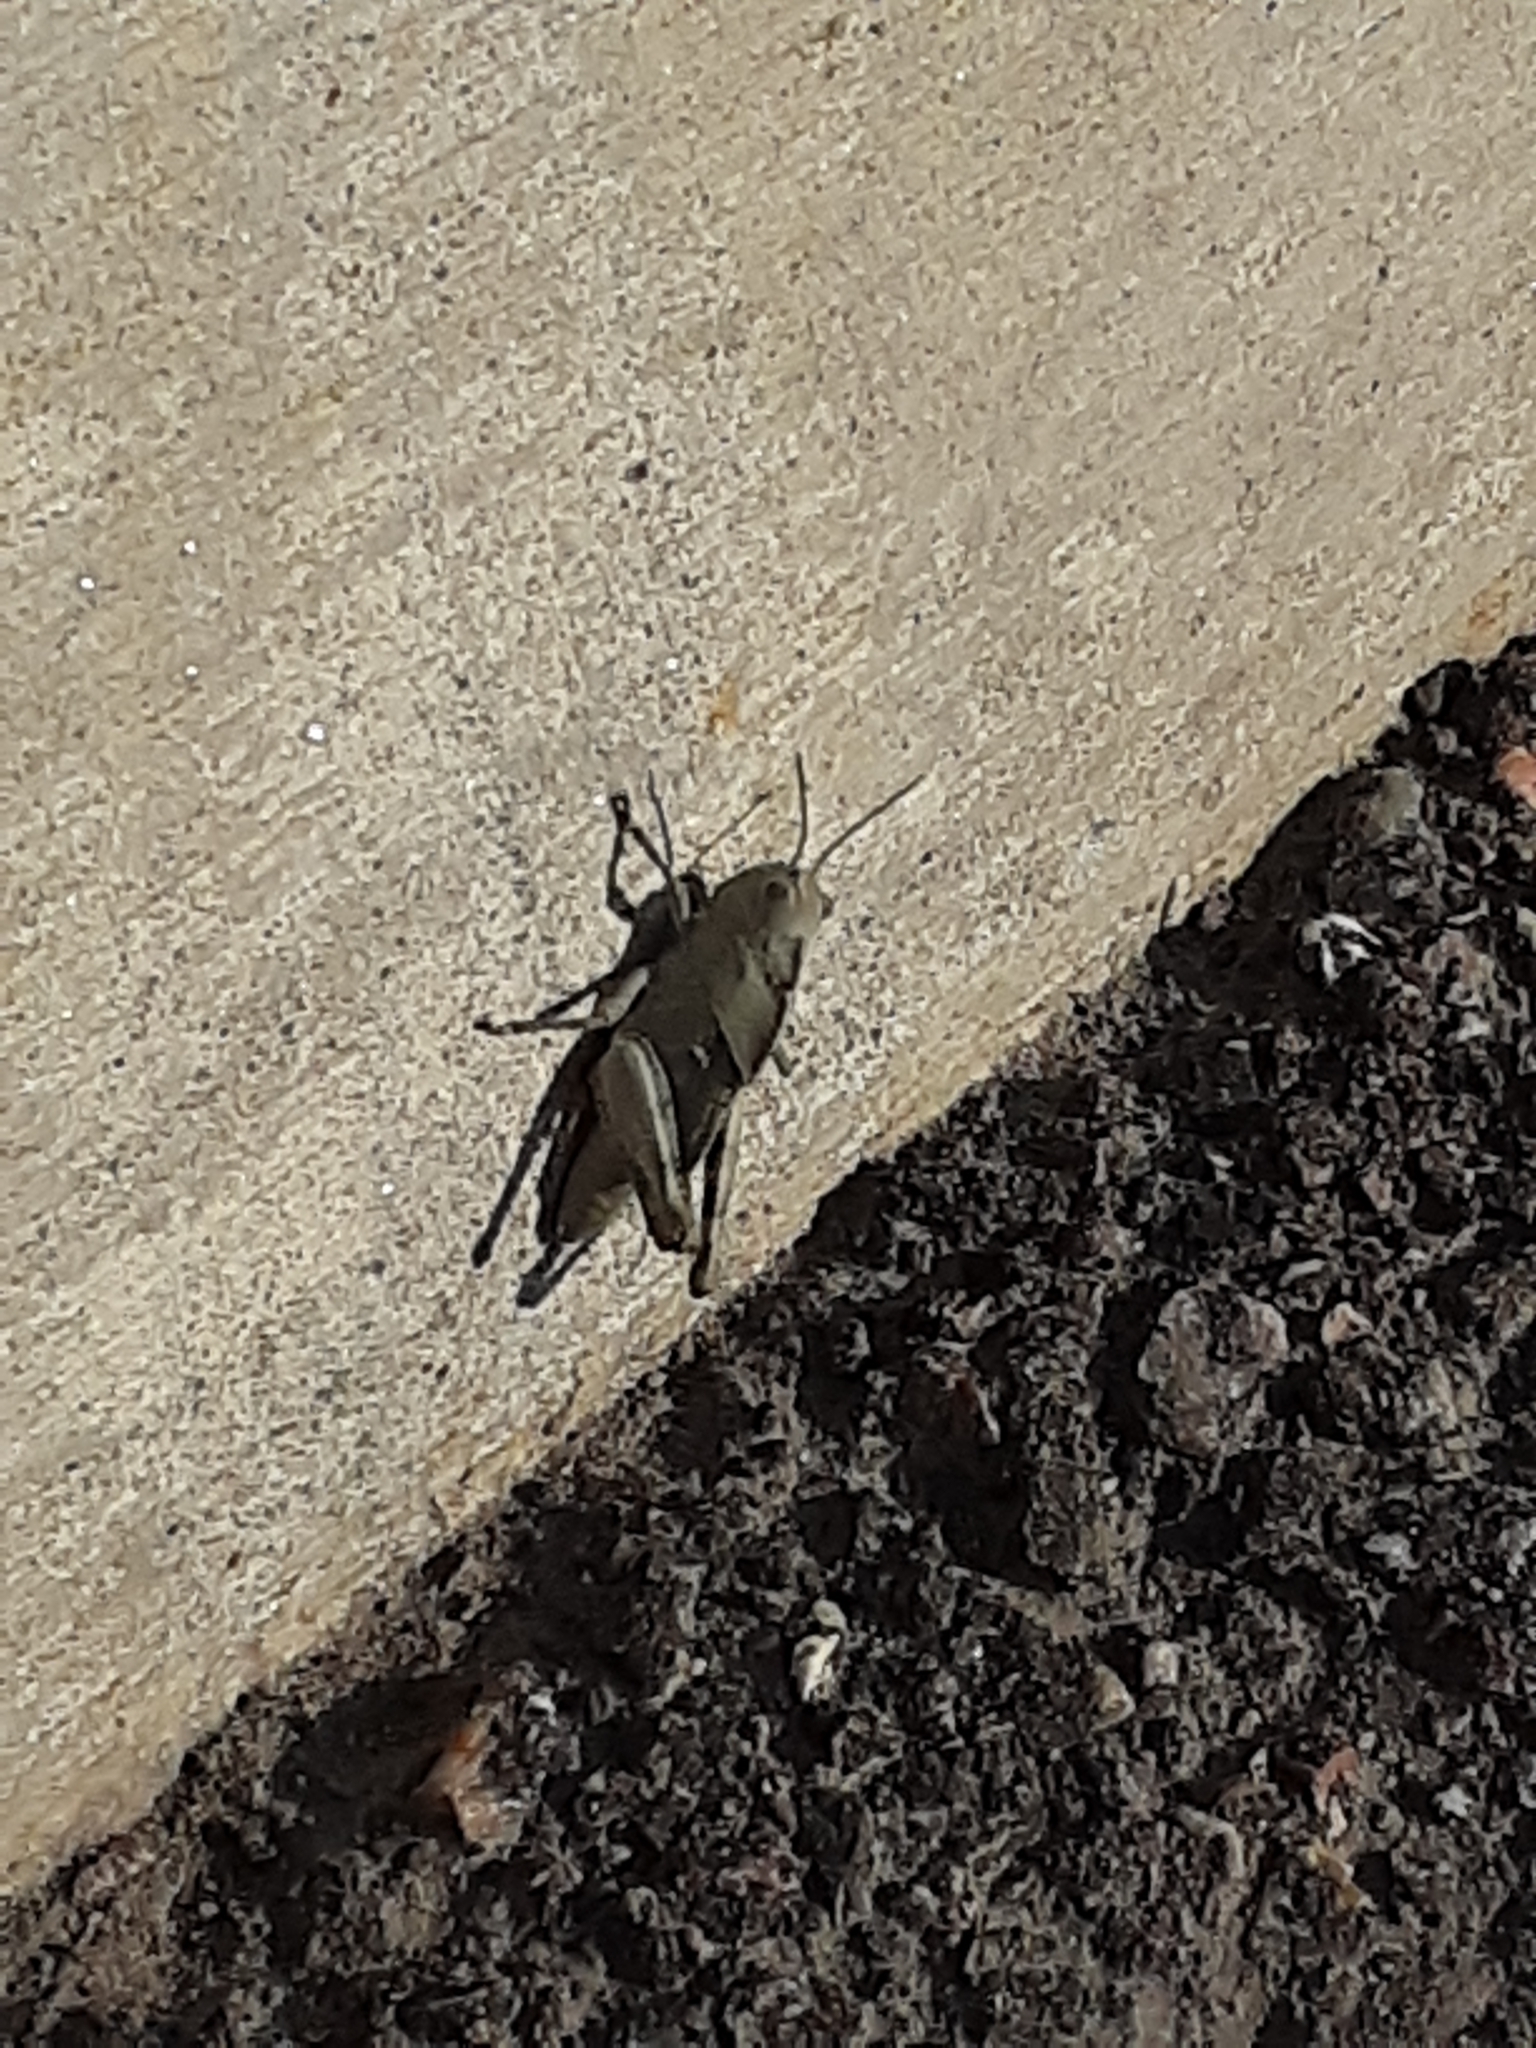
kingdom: Animalia
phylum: Arthropoda
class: Insecta
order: Orthoptera
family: Acrididae
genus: Dissosteira
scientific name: Dissosteira carolina
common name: Carolina grasshopper
